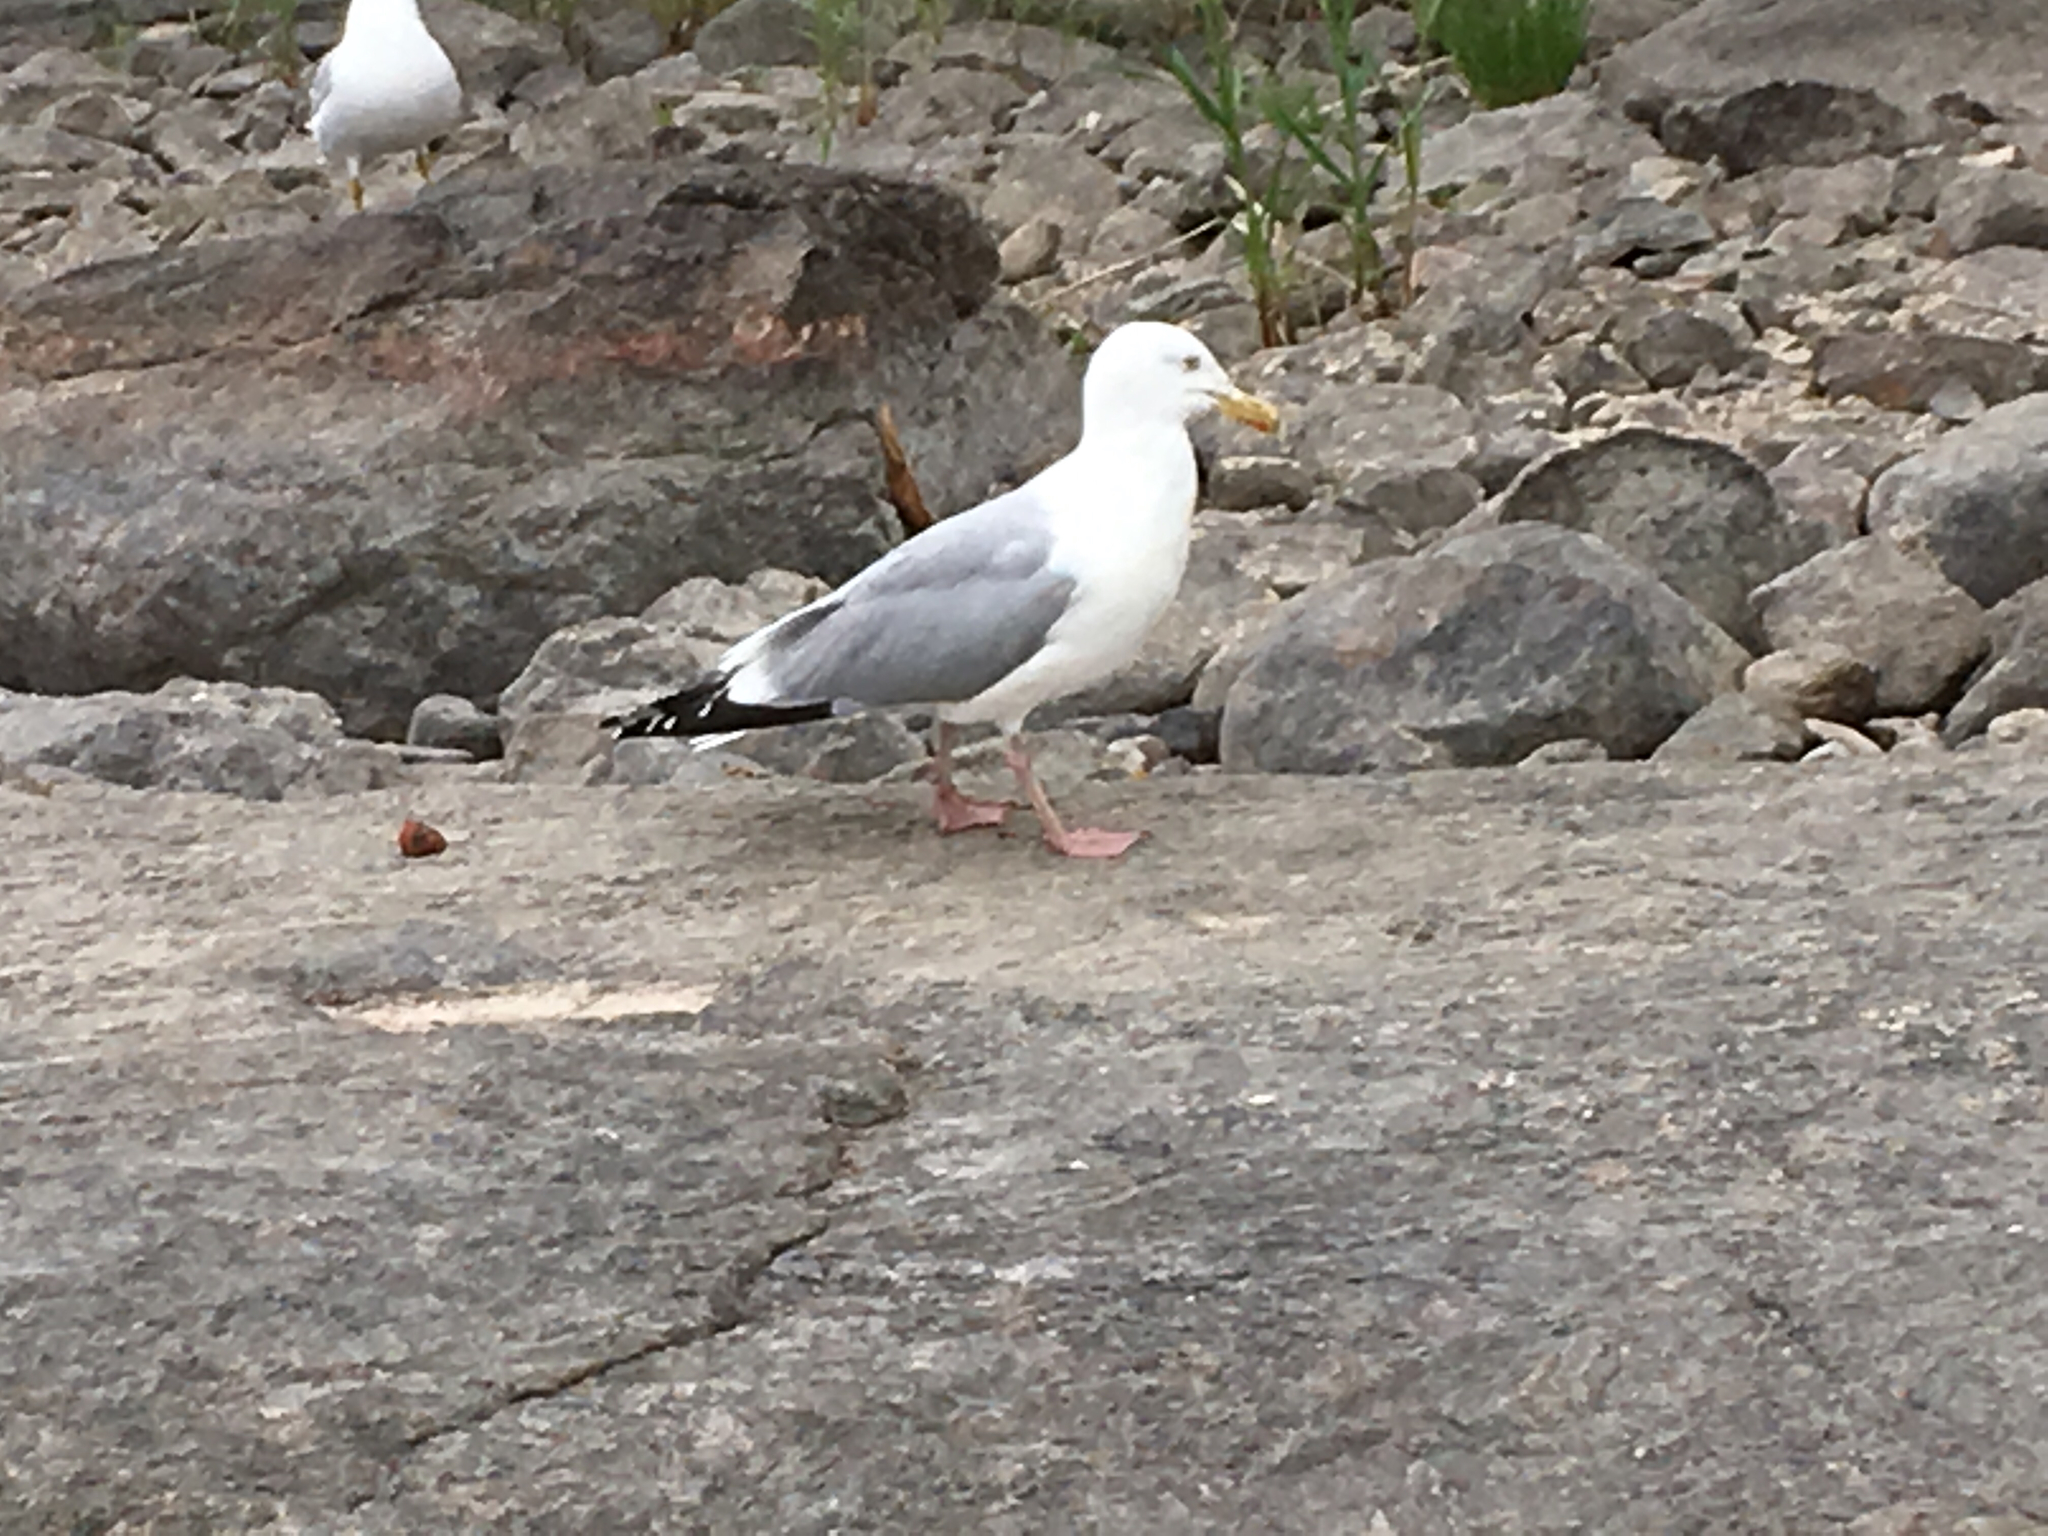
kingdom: Animalia
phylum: Chordata
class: Aves
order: Charadriiformes
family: Laridae
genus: Larus
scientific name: Larus argentatus
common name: Herring gull
